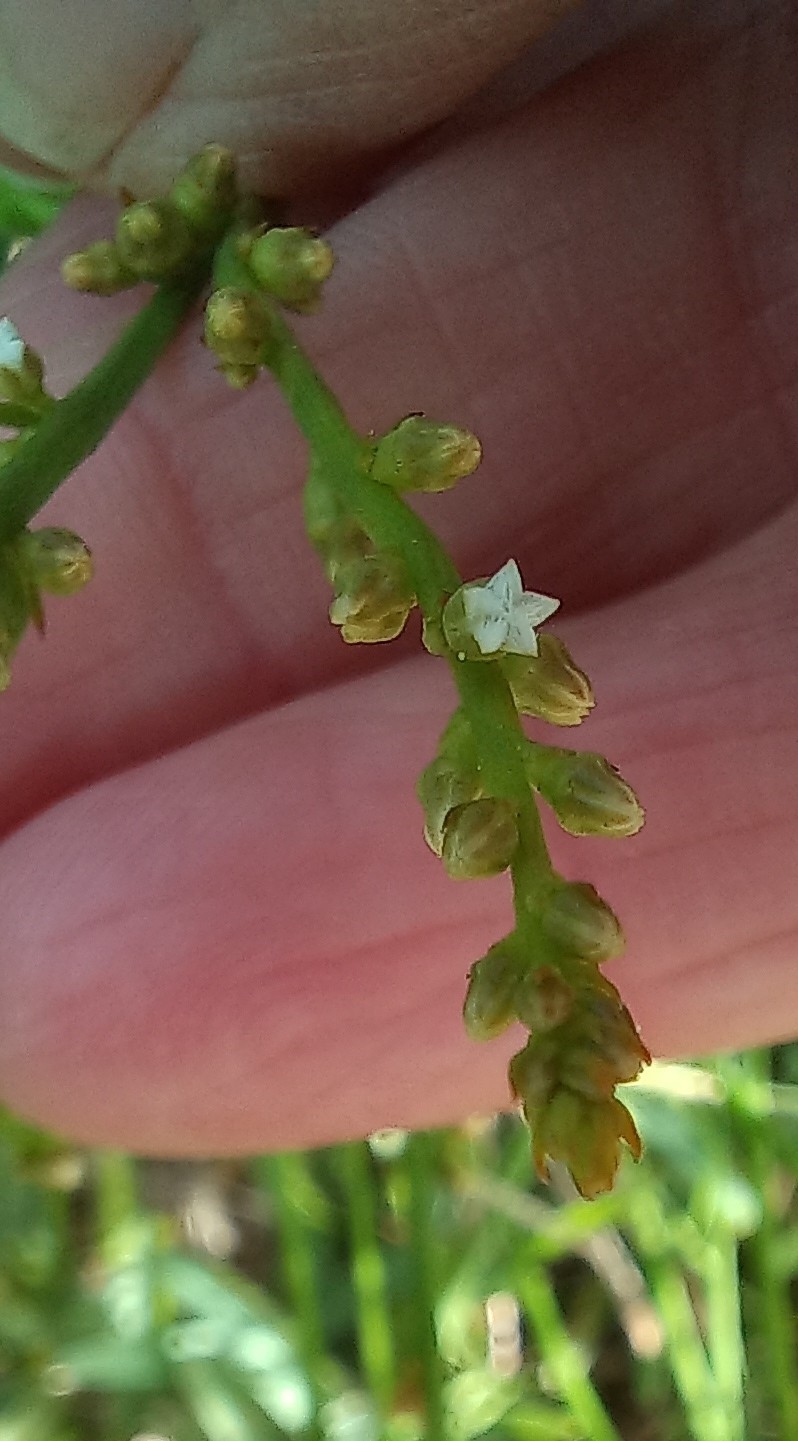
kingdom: Plantae
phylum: Tracheophyta
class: Magnoliopsida
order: Santalales
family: Thesiaceae
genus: Thesium
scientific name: Thesium patulum
